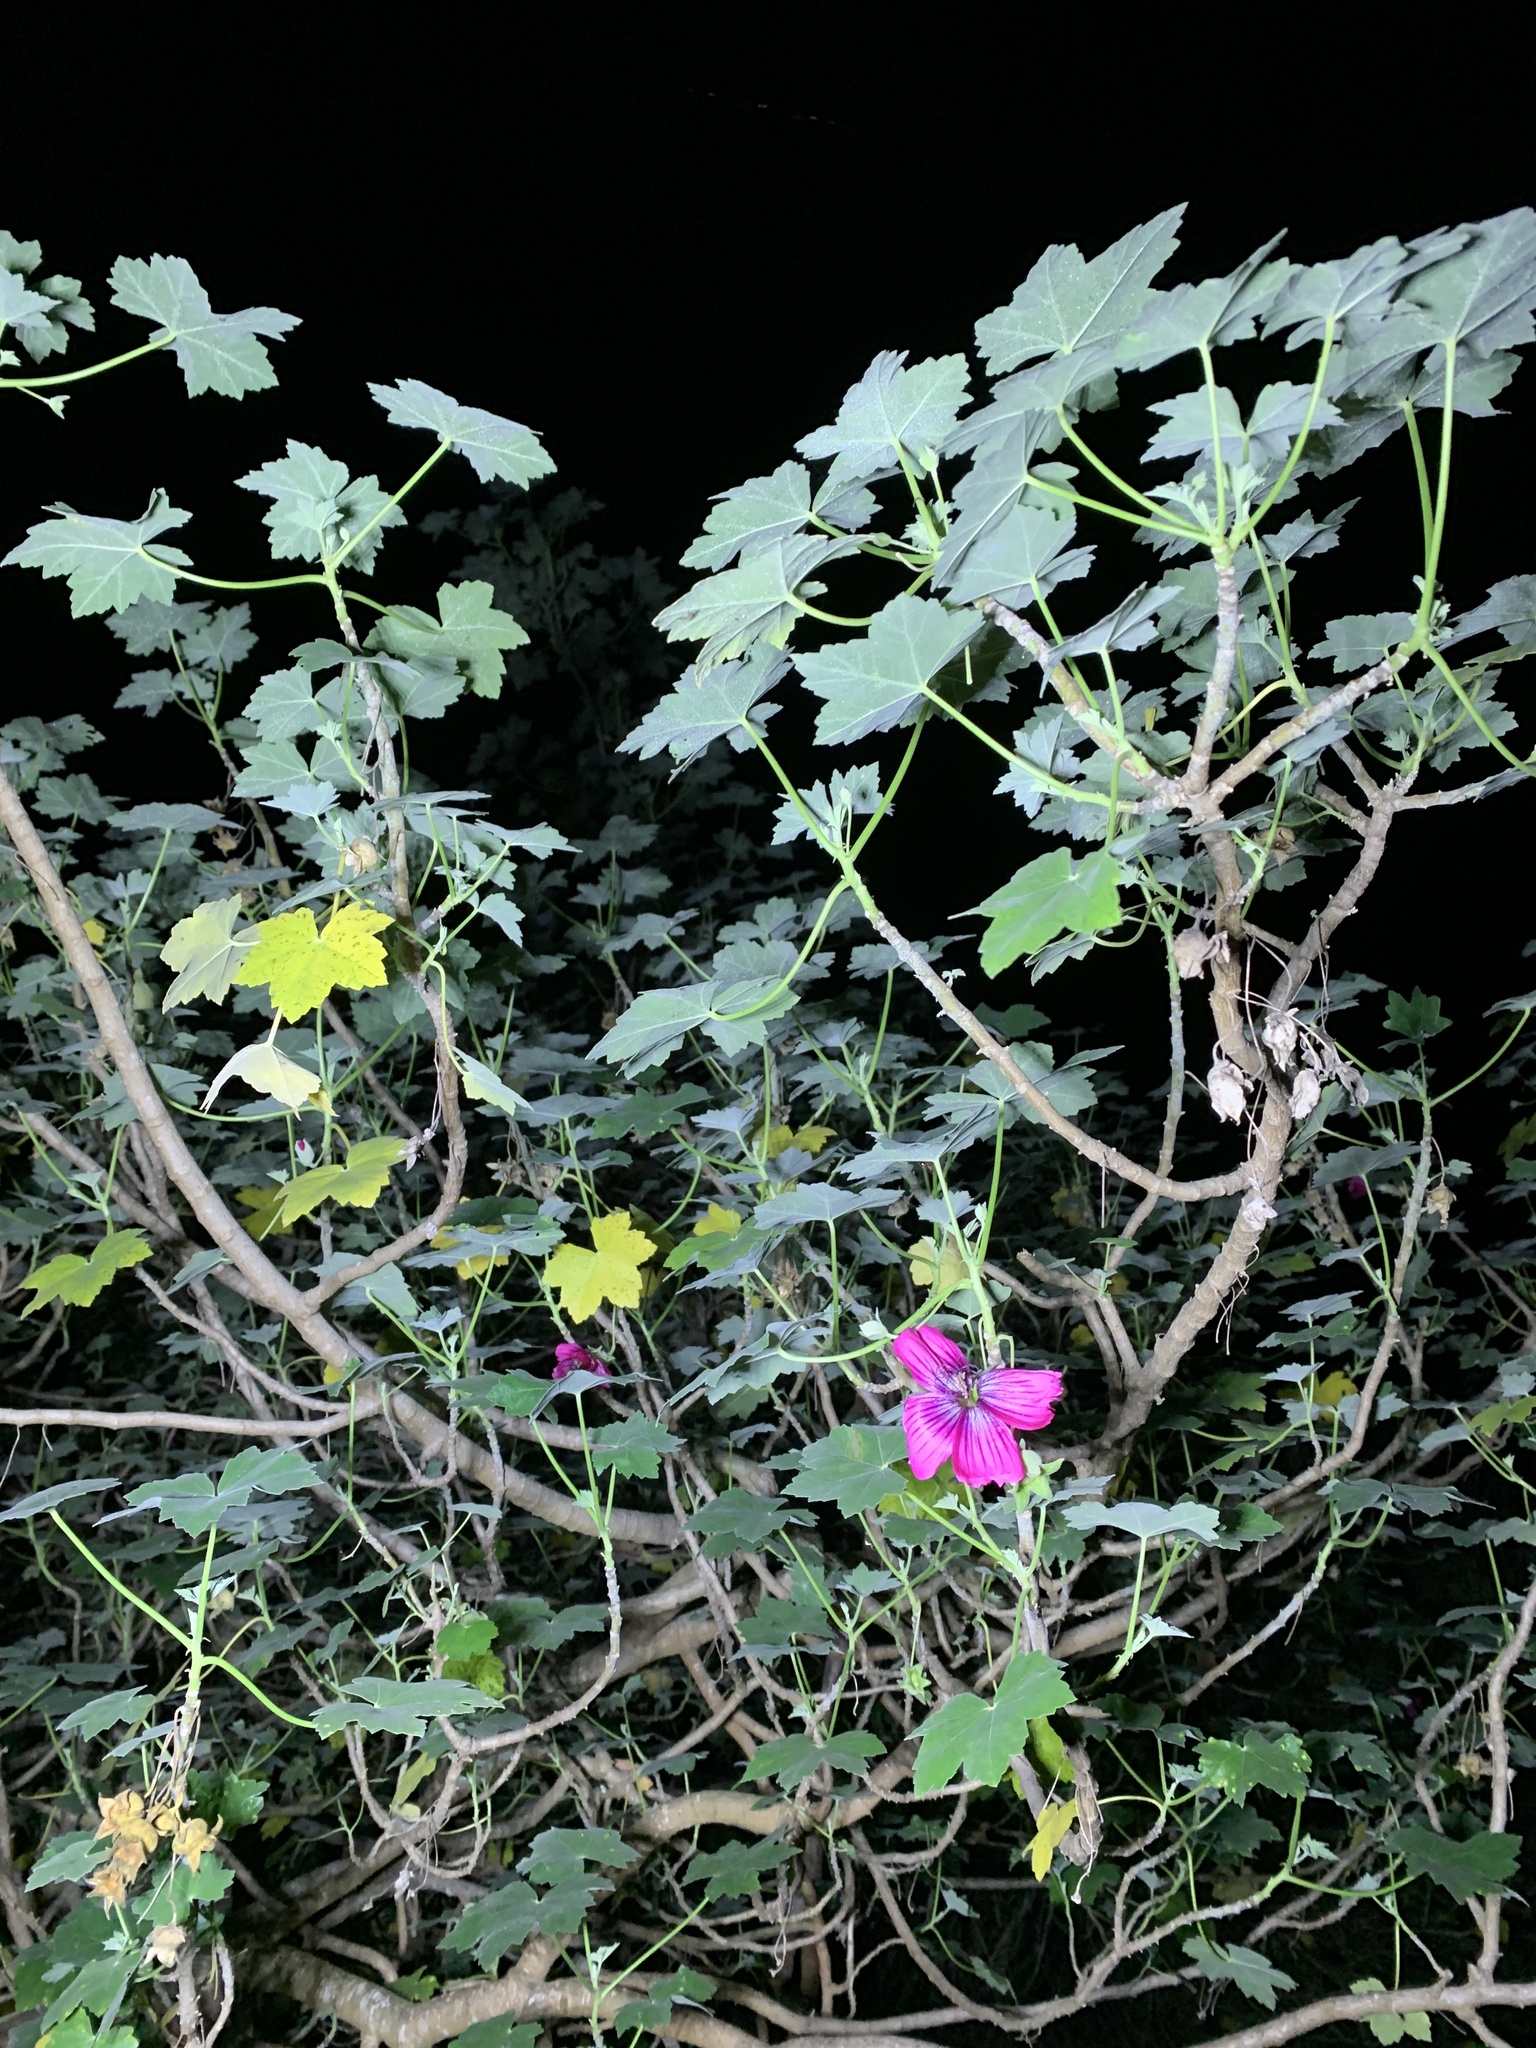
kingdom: Plantae
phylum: Tracheophyta
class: Magnoliopsida
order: Malvales
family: Malvaceae
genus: Malva
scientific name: Malva assurgentiflora
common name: Island mallow
